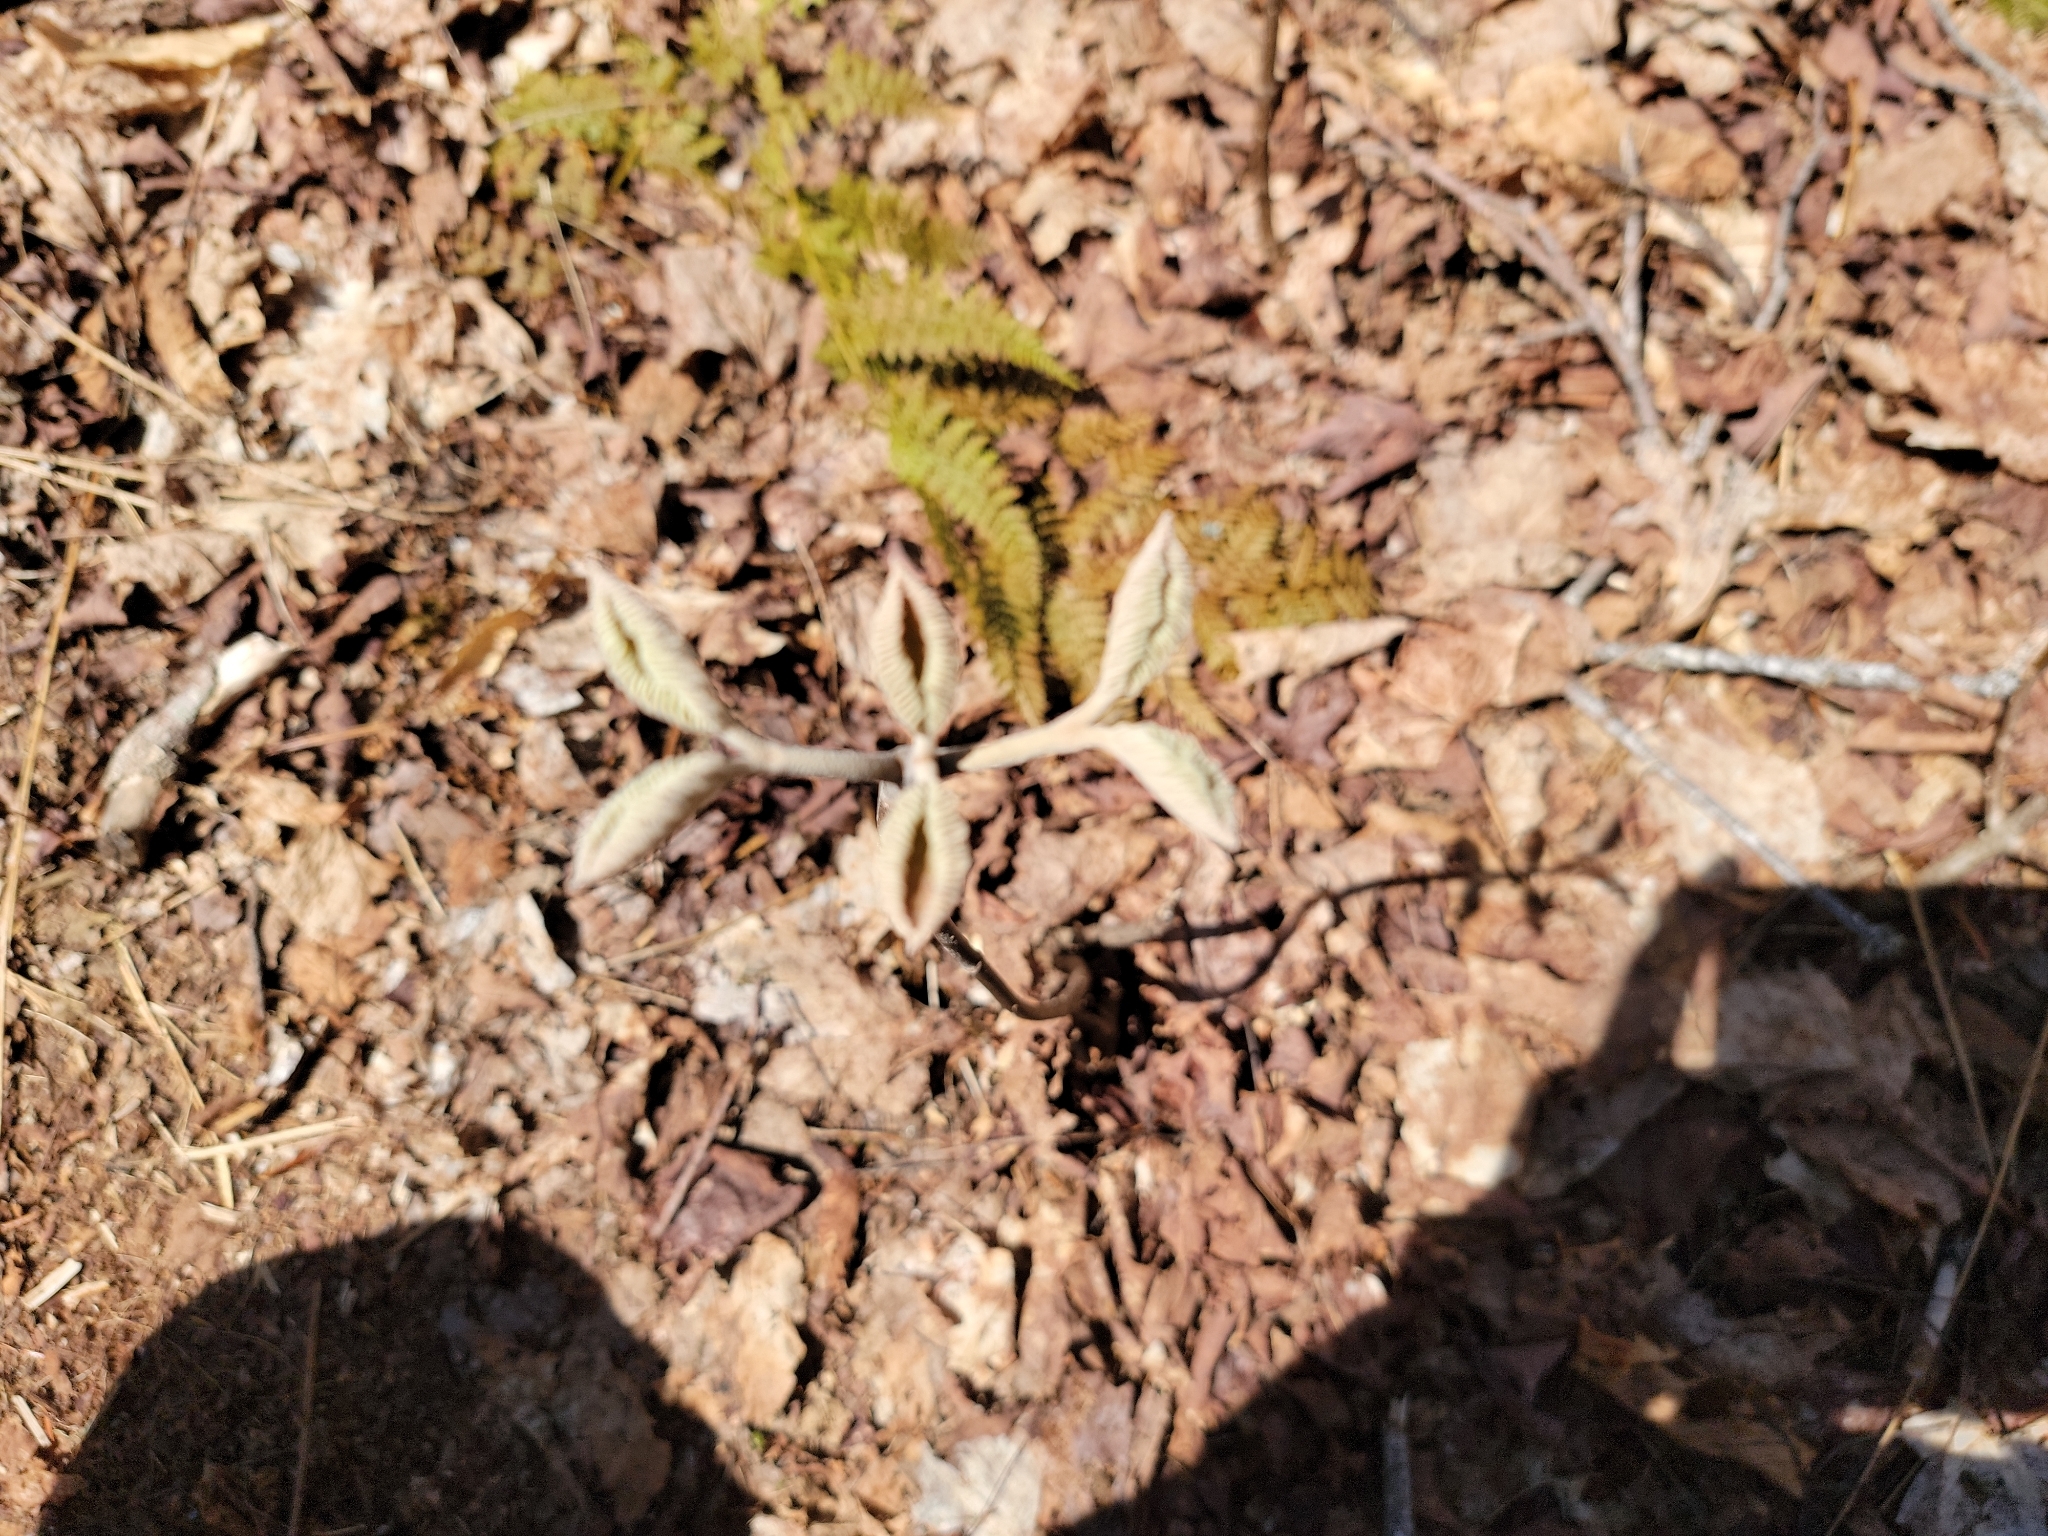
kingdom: Plantae
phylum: Tracheophyta
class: Magnoliopsida
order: Dipsacales
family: Viburnaceae
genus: Viburnum
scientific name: Viburnum lantanoides
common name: Hobblebush
